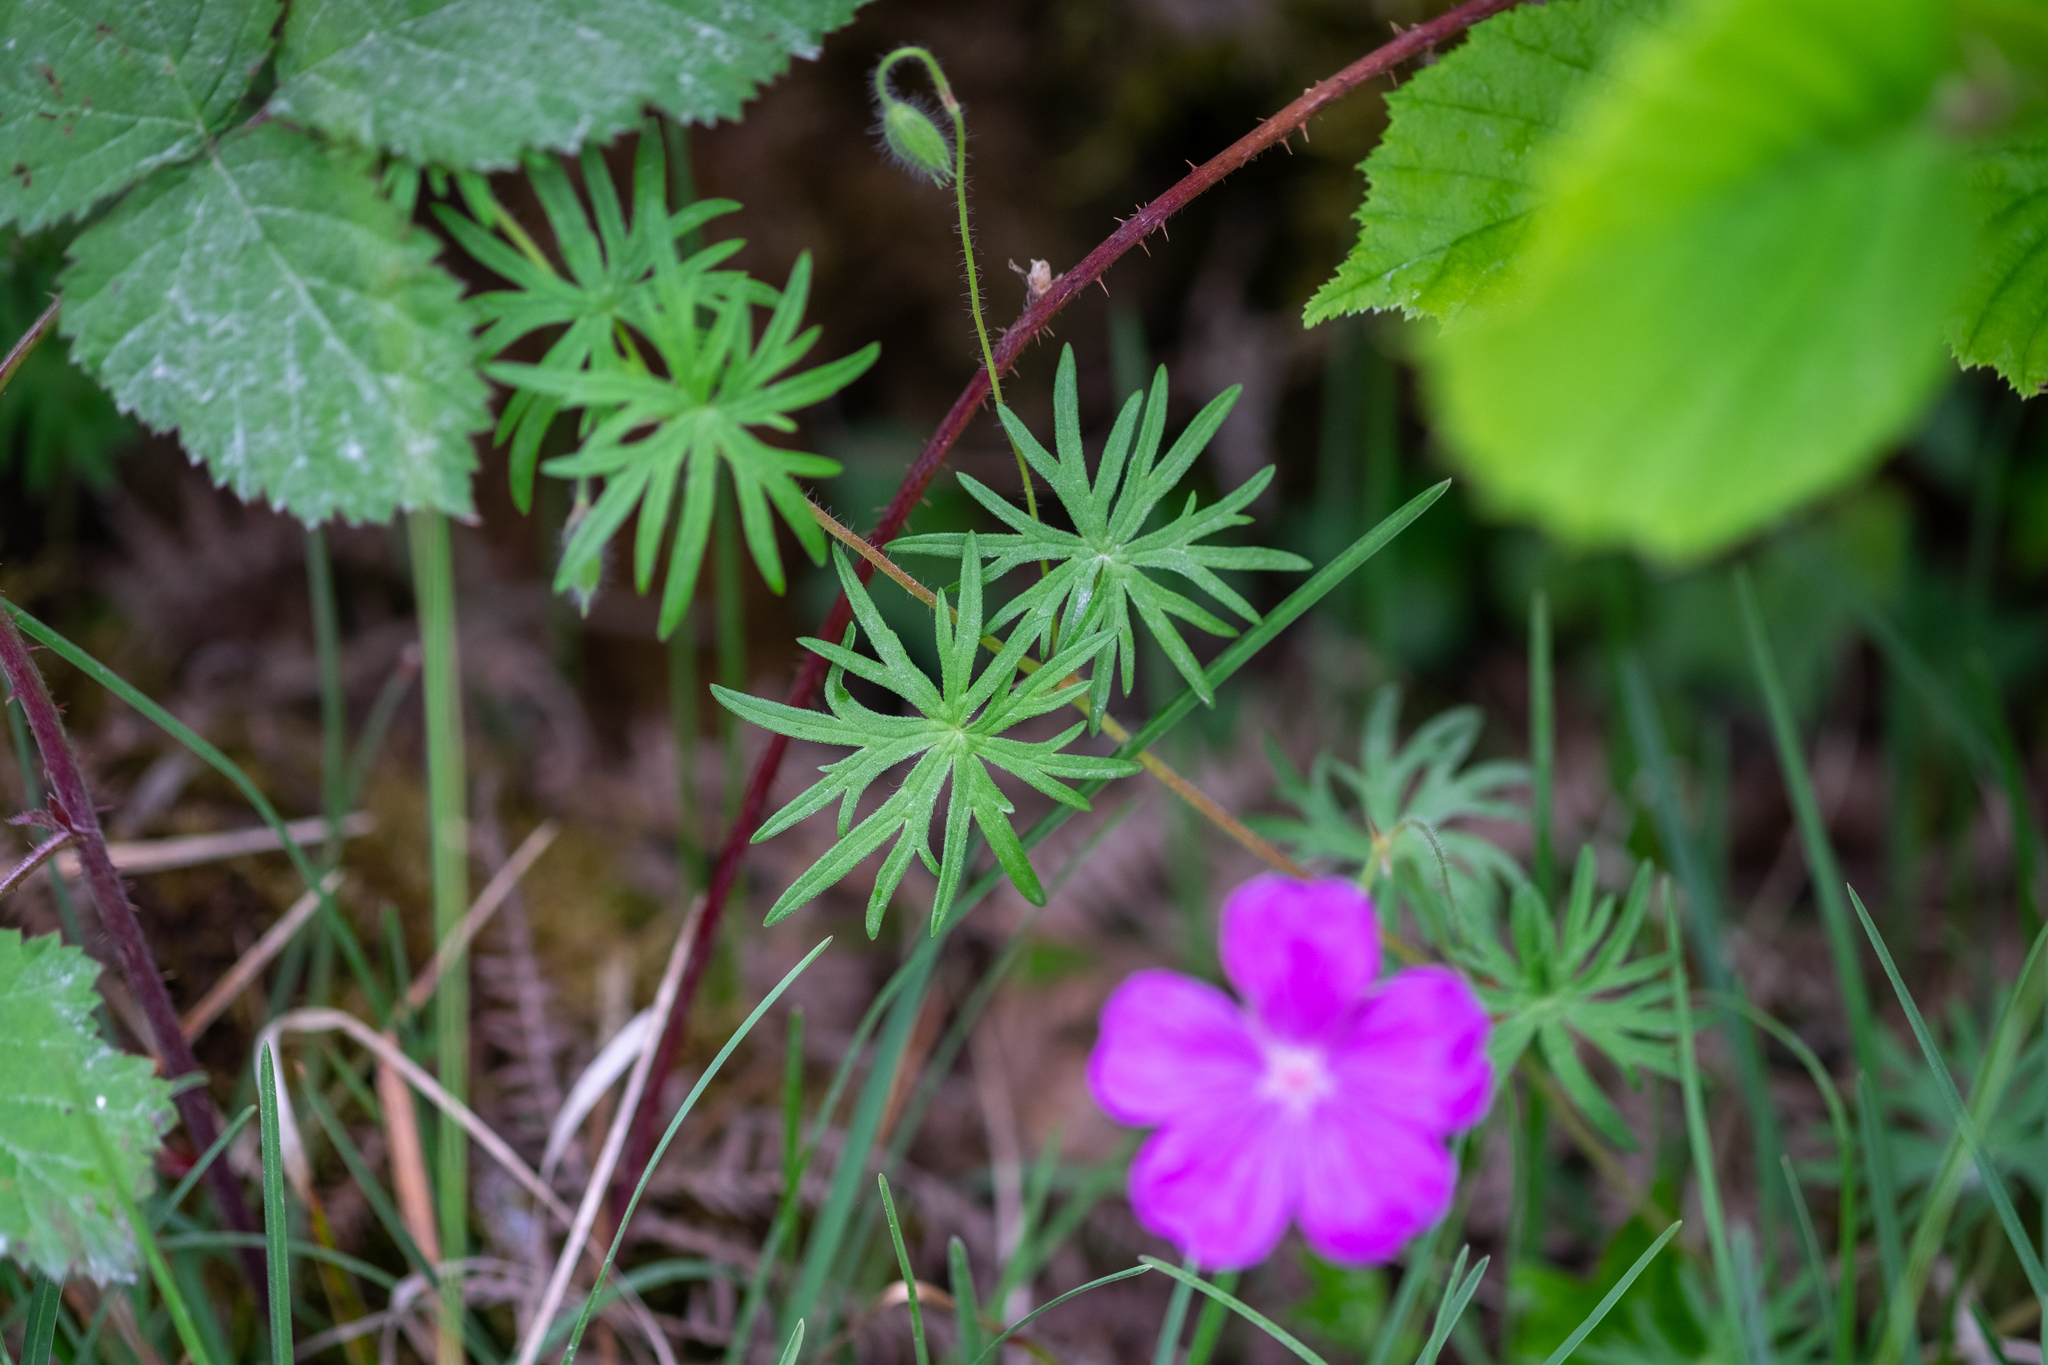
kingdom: Plantae
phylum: Tracheophyta
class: Magnoliopsida
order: Geraniales
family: Geraniaceae
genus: Geranium
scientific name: Geranium sanguineum
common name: Bloody crane's-bill
